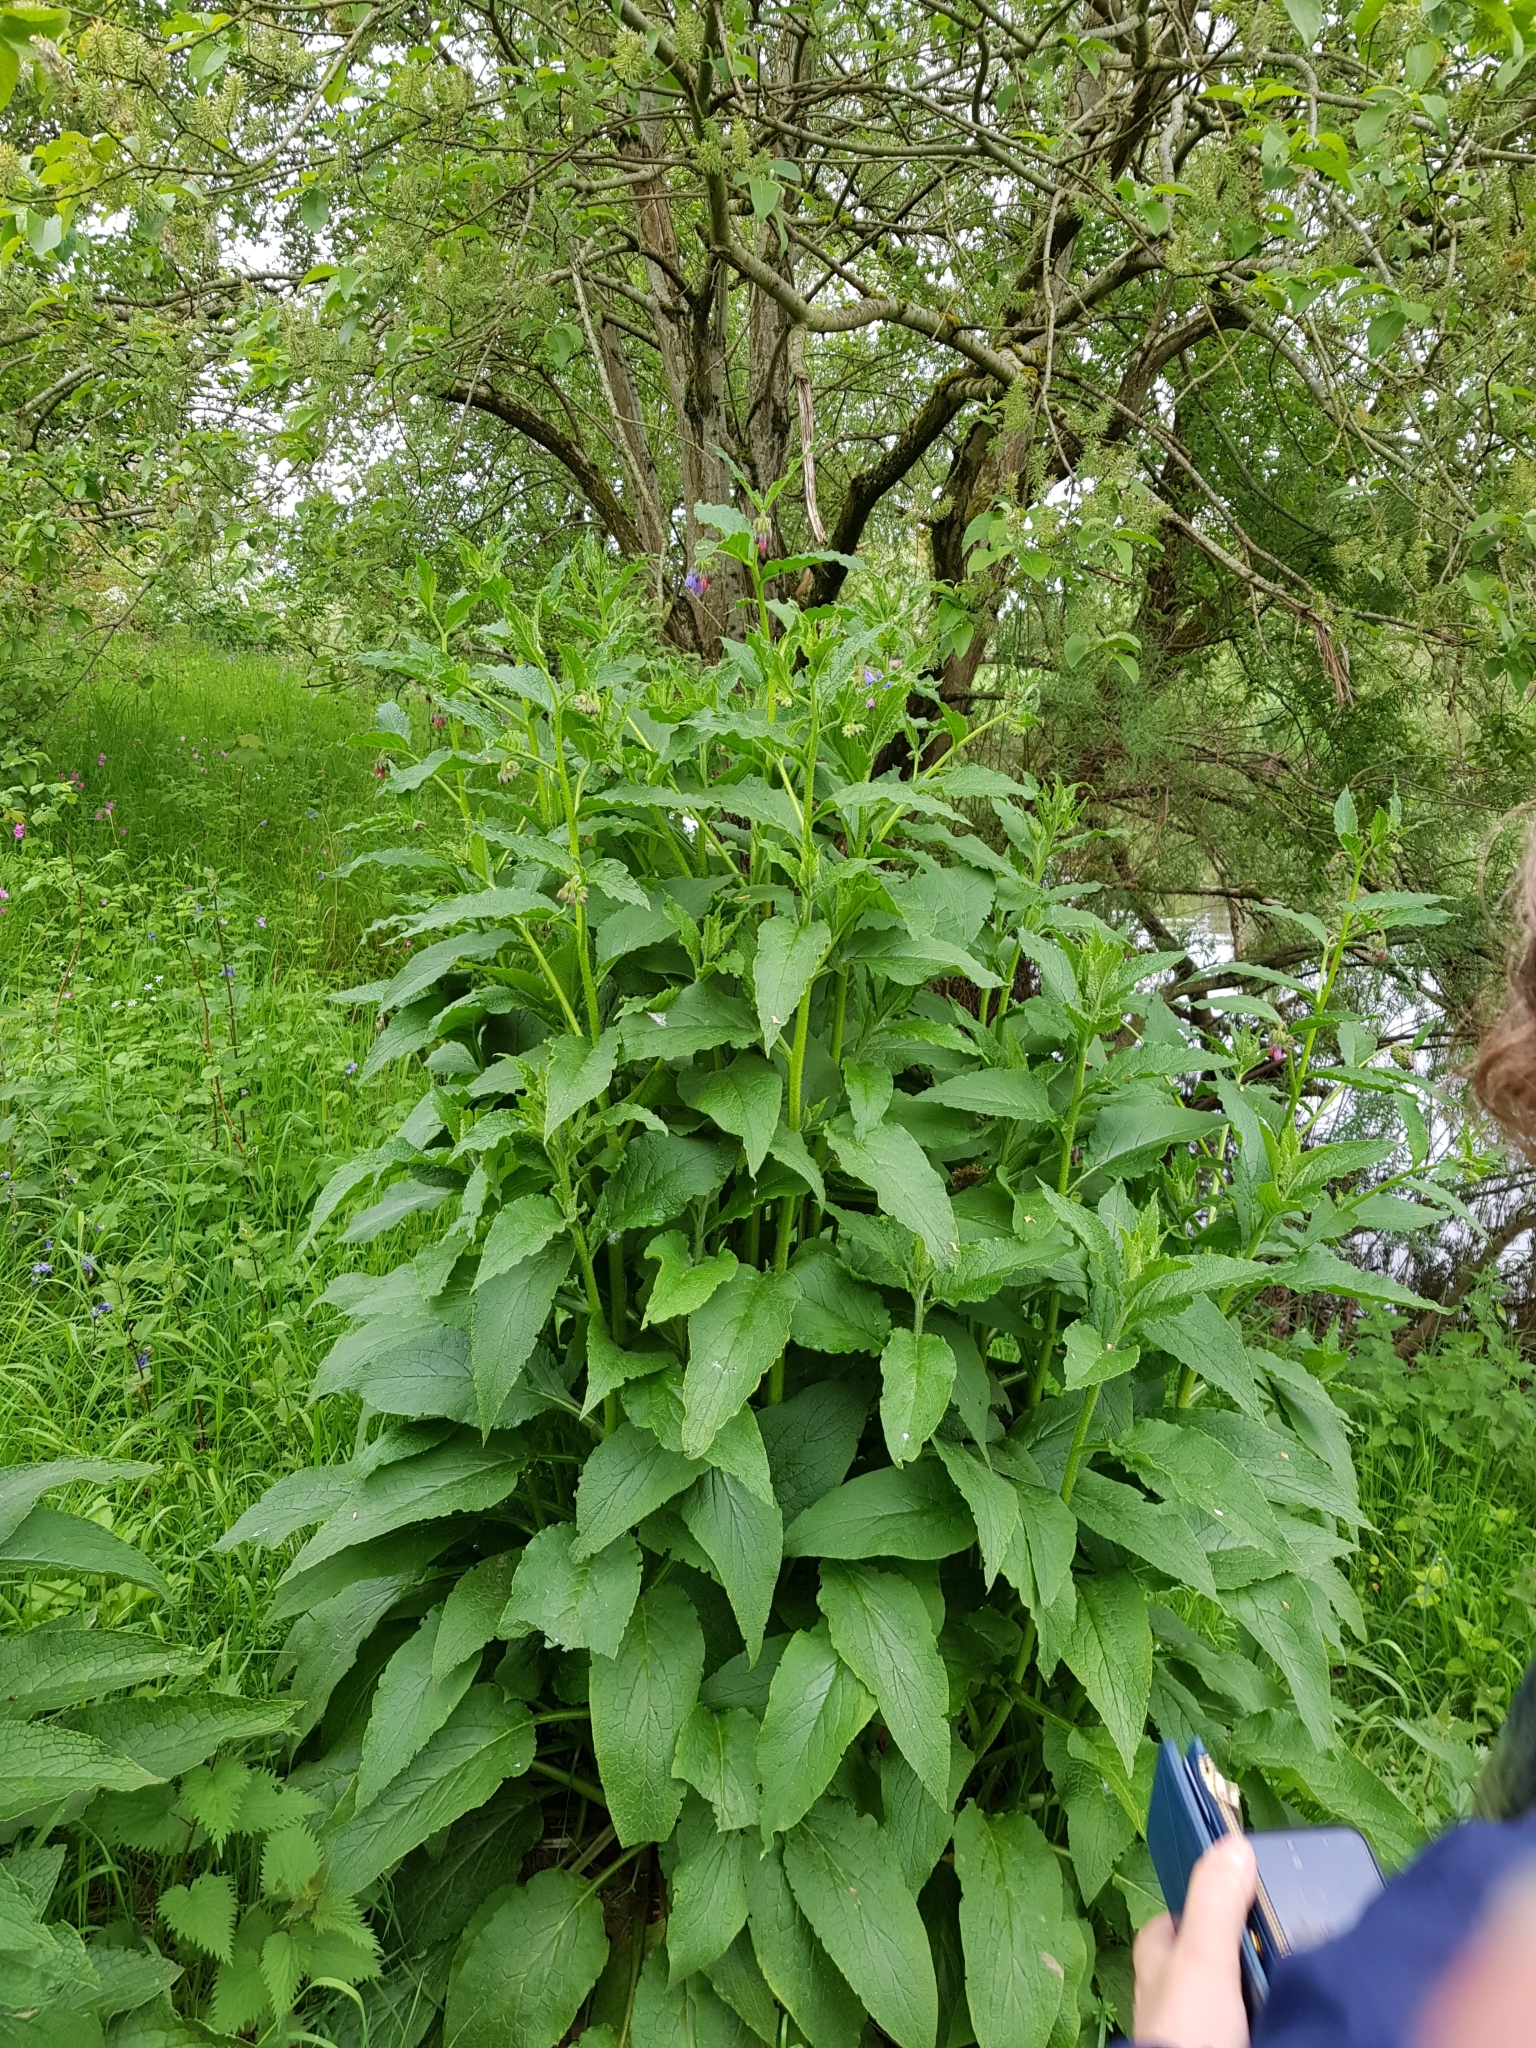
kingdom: Plantae
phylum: Tracheophyta
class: Magnoliopsida
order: Boraginales
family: Boraginaceae
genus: Symphytum
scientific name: Symphytum uplandicum
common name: Russian comfrey
